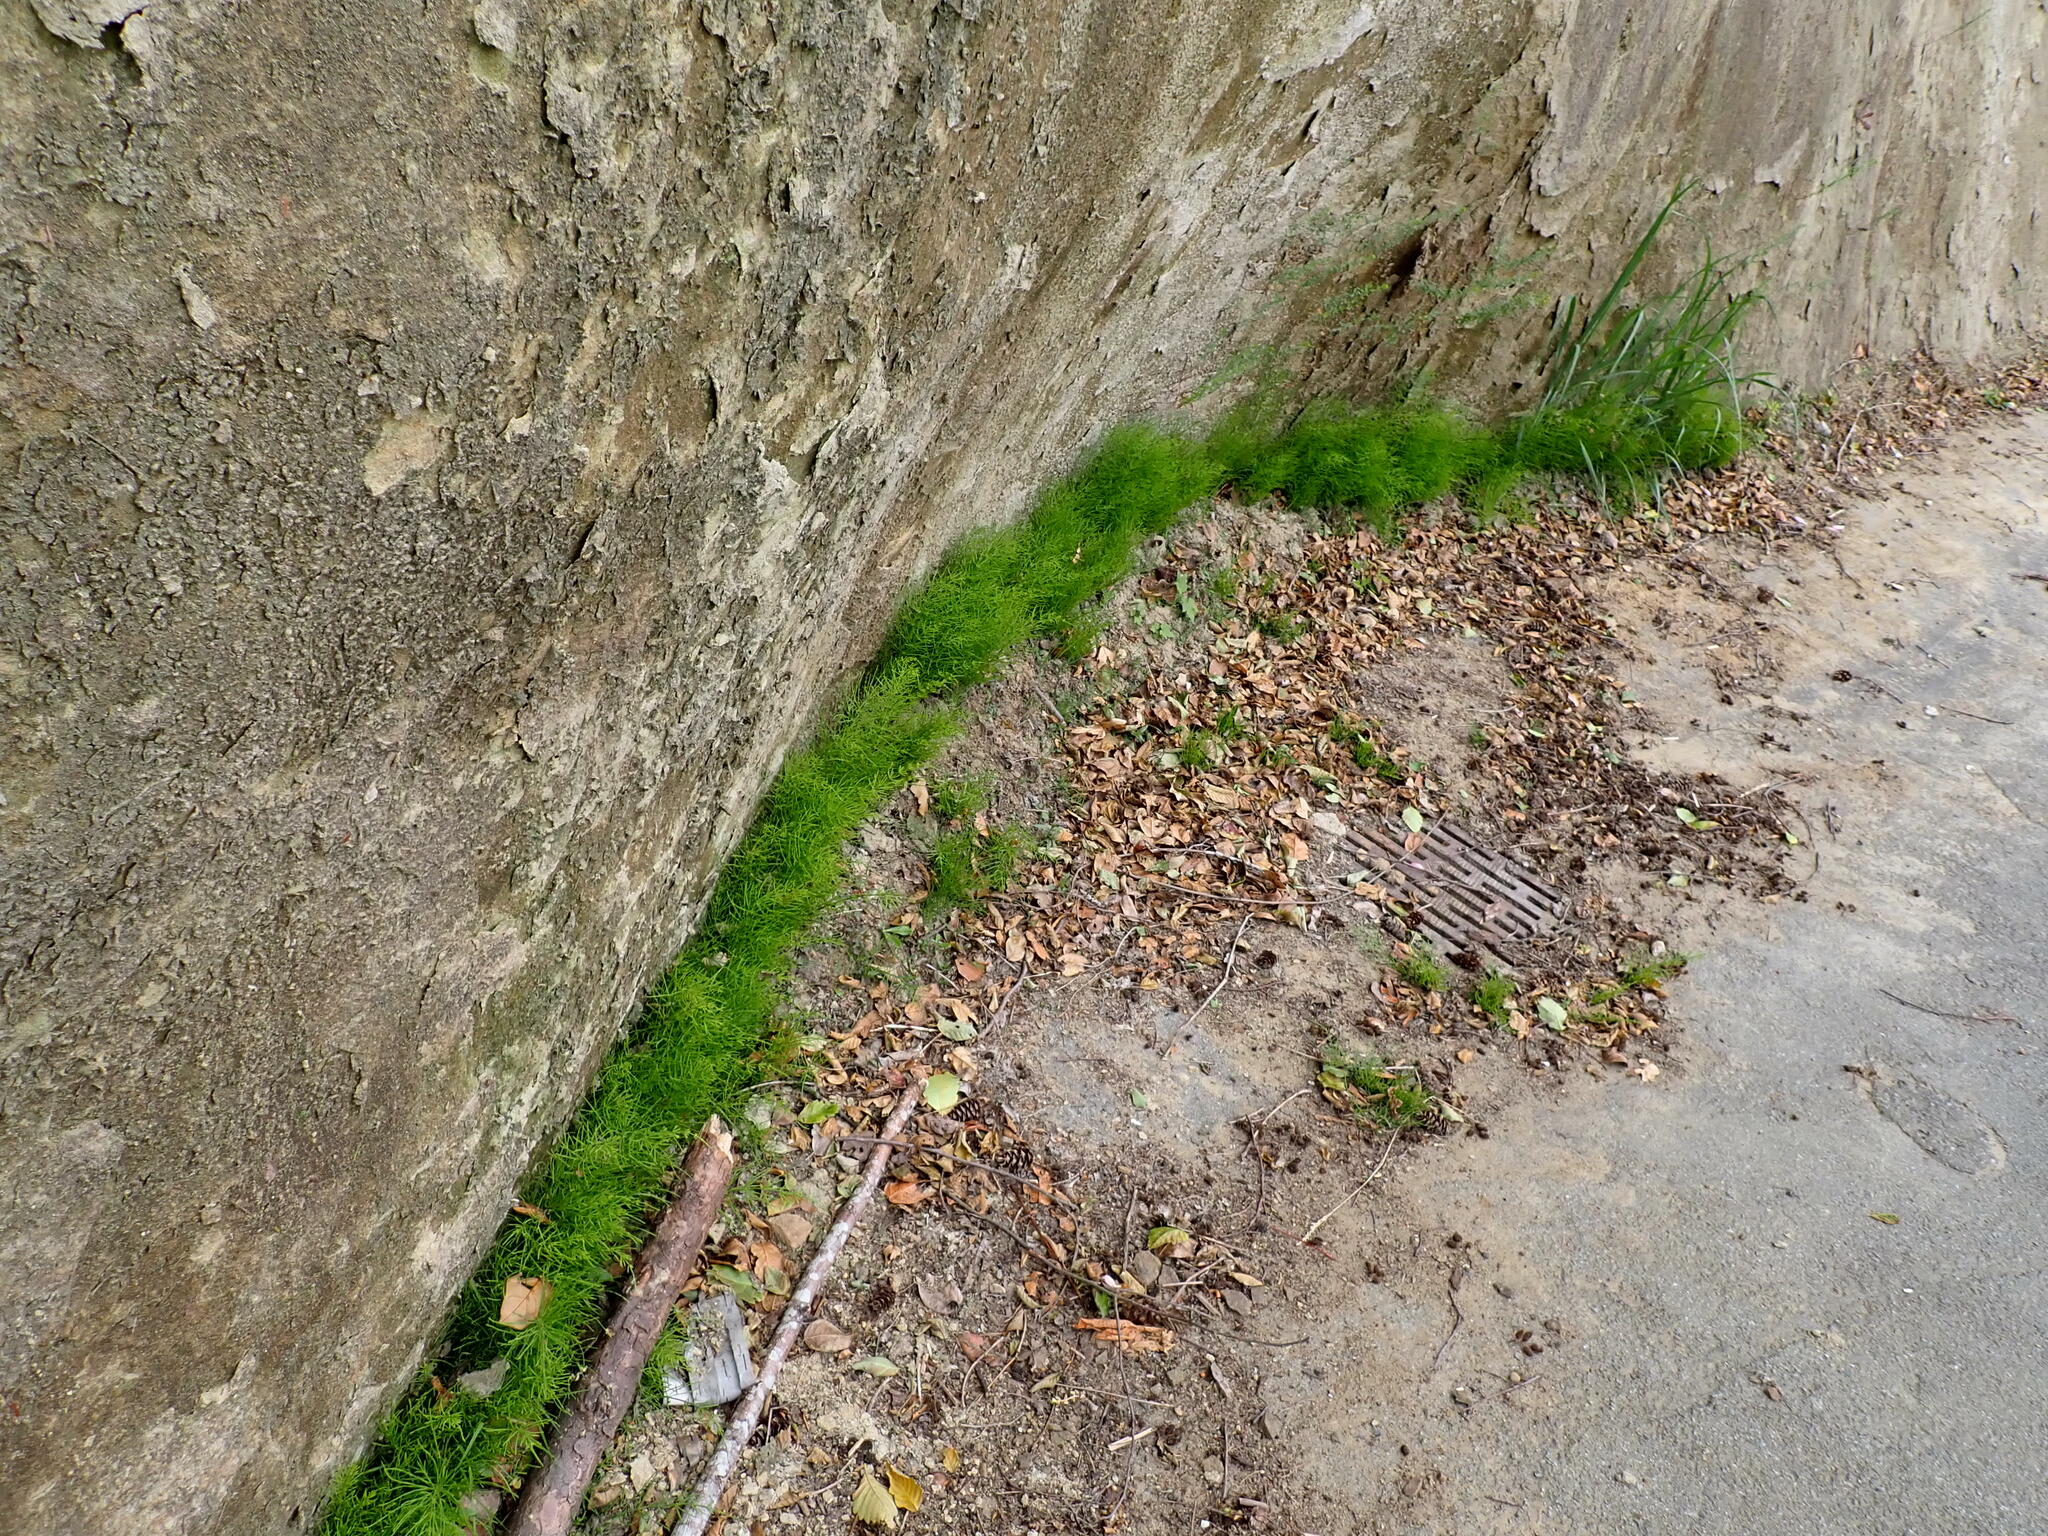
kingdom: Plantae
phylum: Tracheophyta
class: Polypodiopsida
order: Equisetales
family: Equisetaceae
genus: Equisetum
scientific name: Equisetum arvense
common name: Field horsetail
